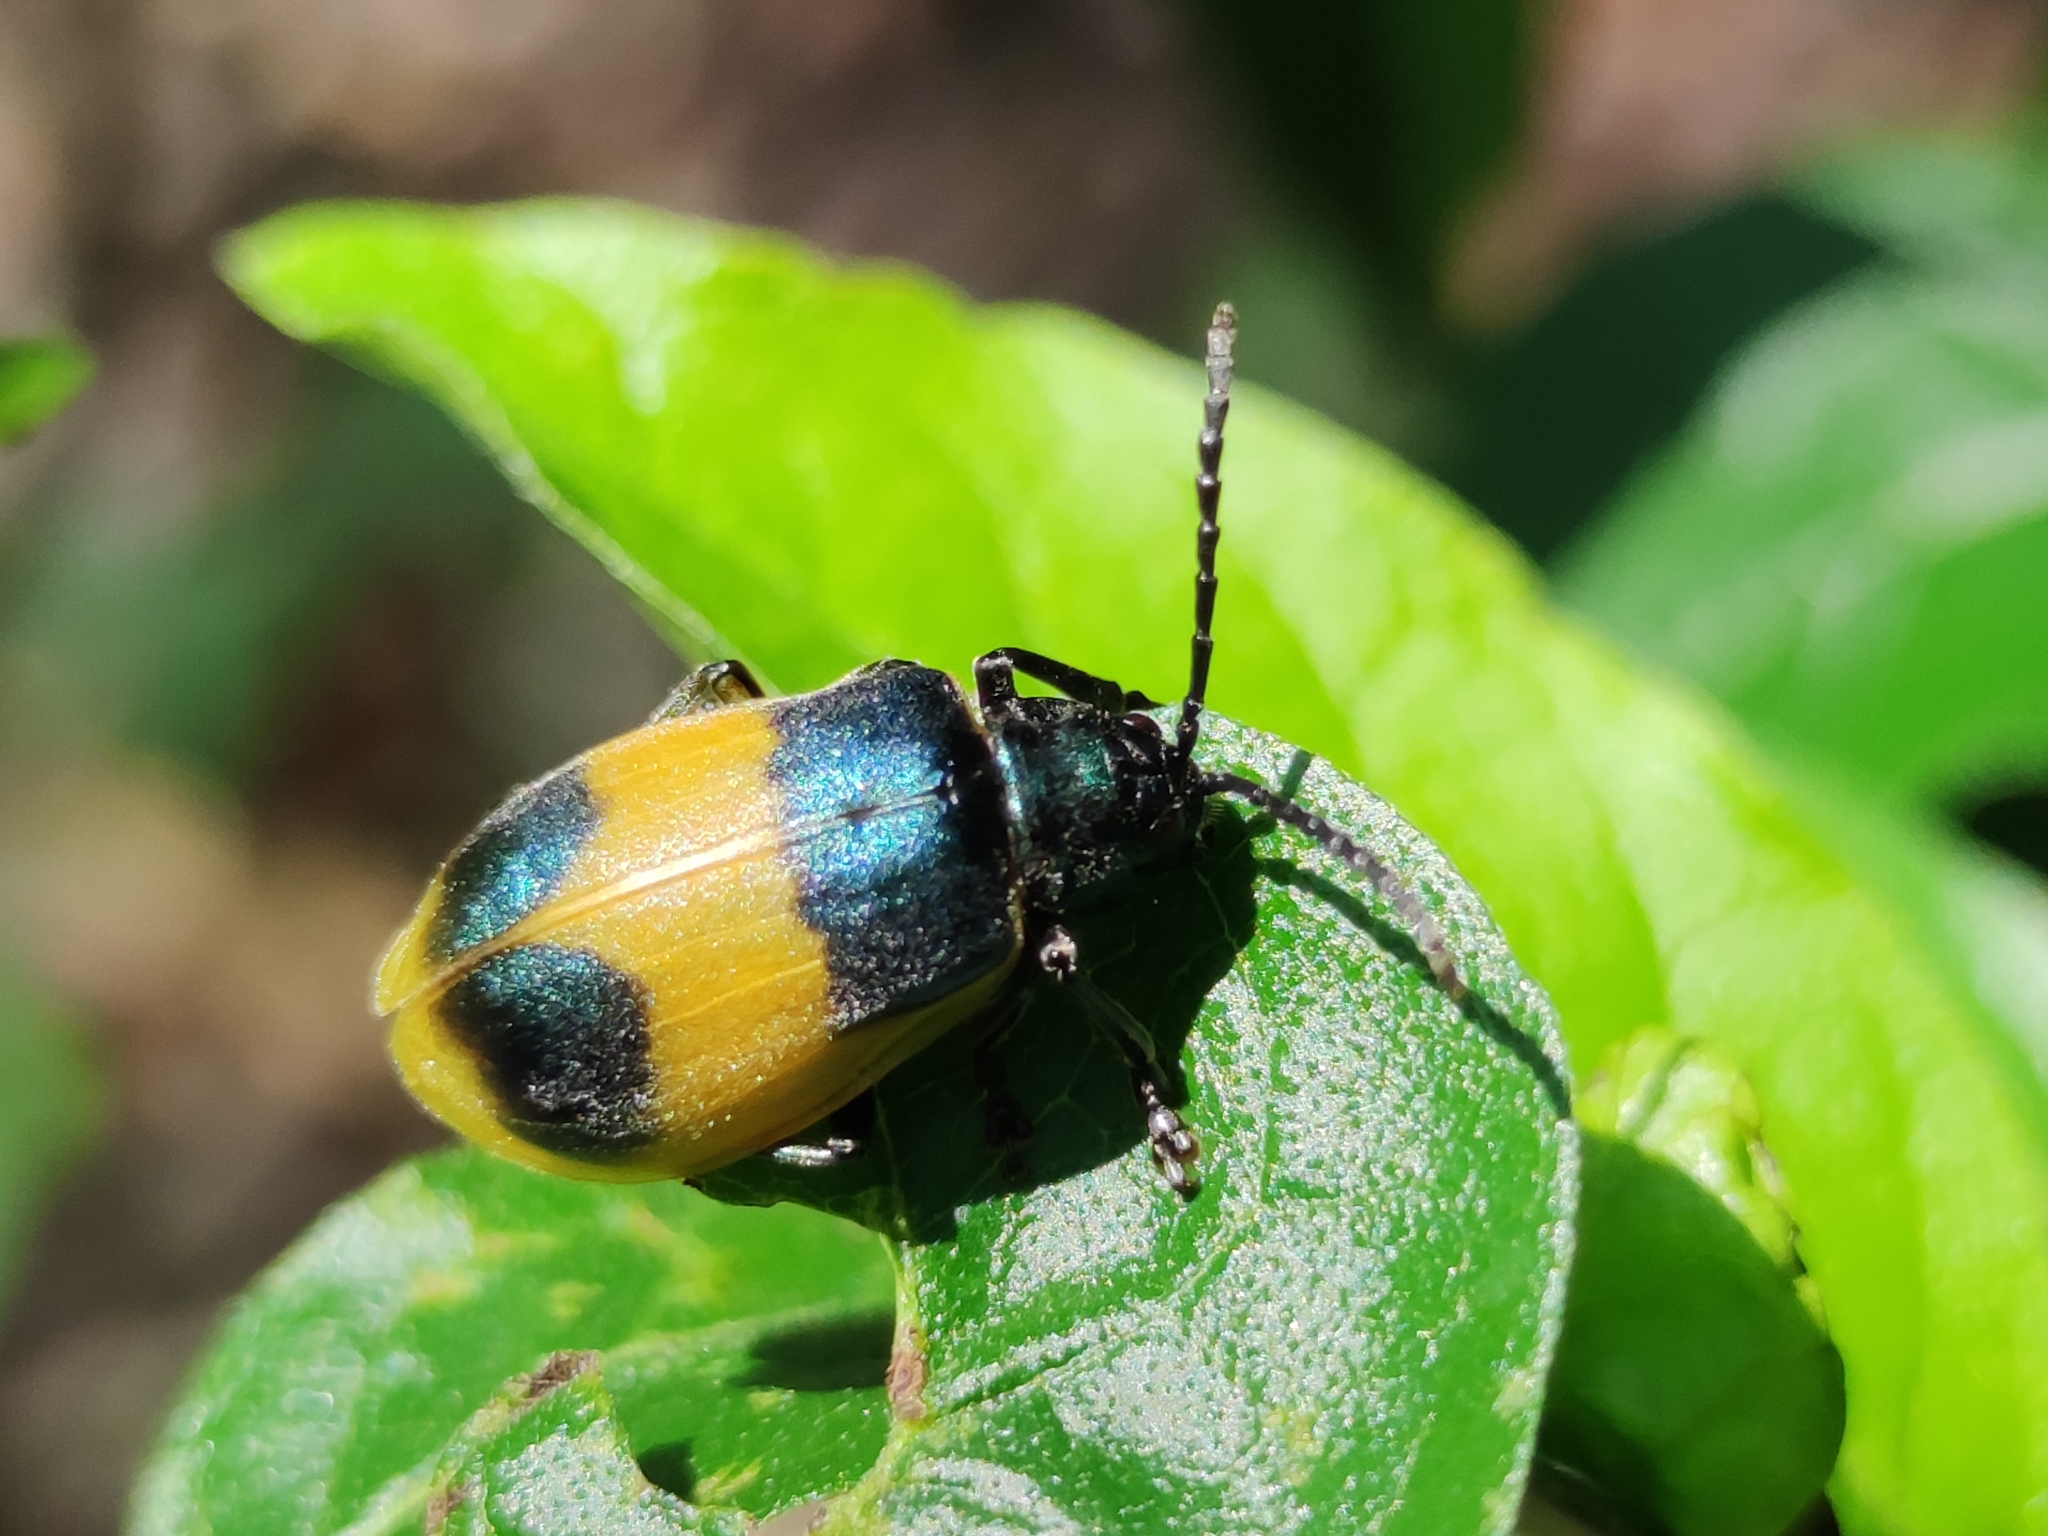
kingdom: Animalia
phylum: Arthropoda
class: Insecta
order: Coleoptera
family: Chrysomelidae
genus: Monocesta
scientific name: Monocesta
